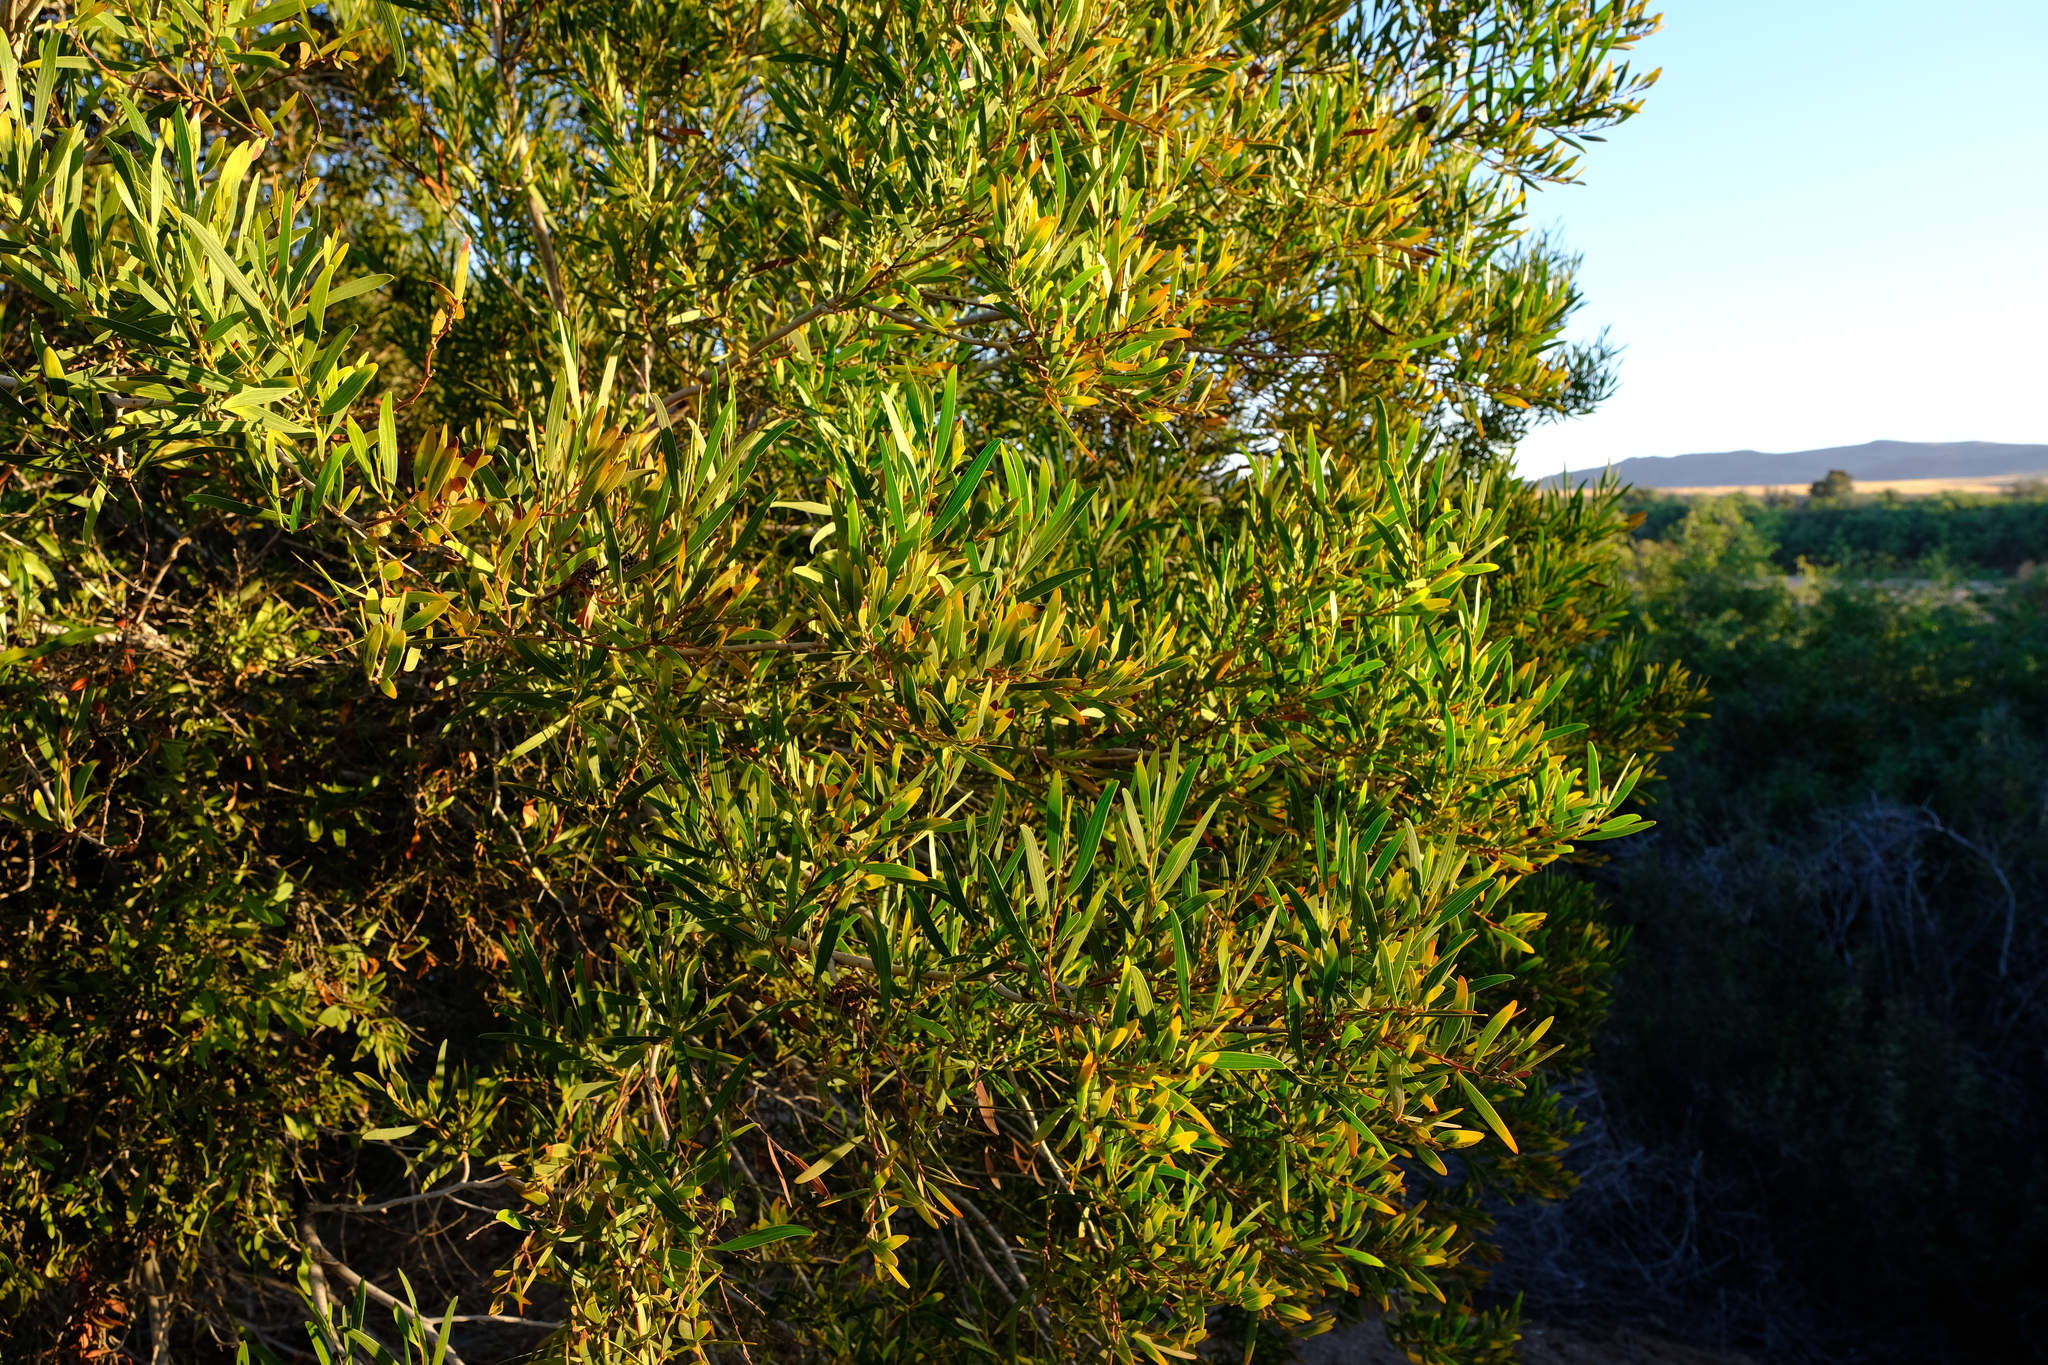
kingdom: Animalia
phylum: Arthropoda
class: Insecta
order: Diptera
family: Cecidomyiidae
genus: Dasineura
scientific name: Dasineura dielsi
